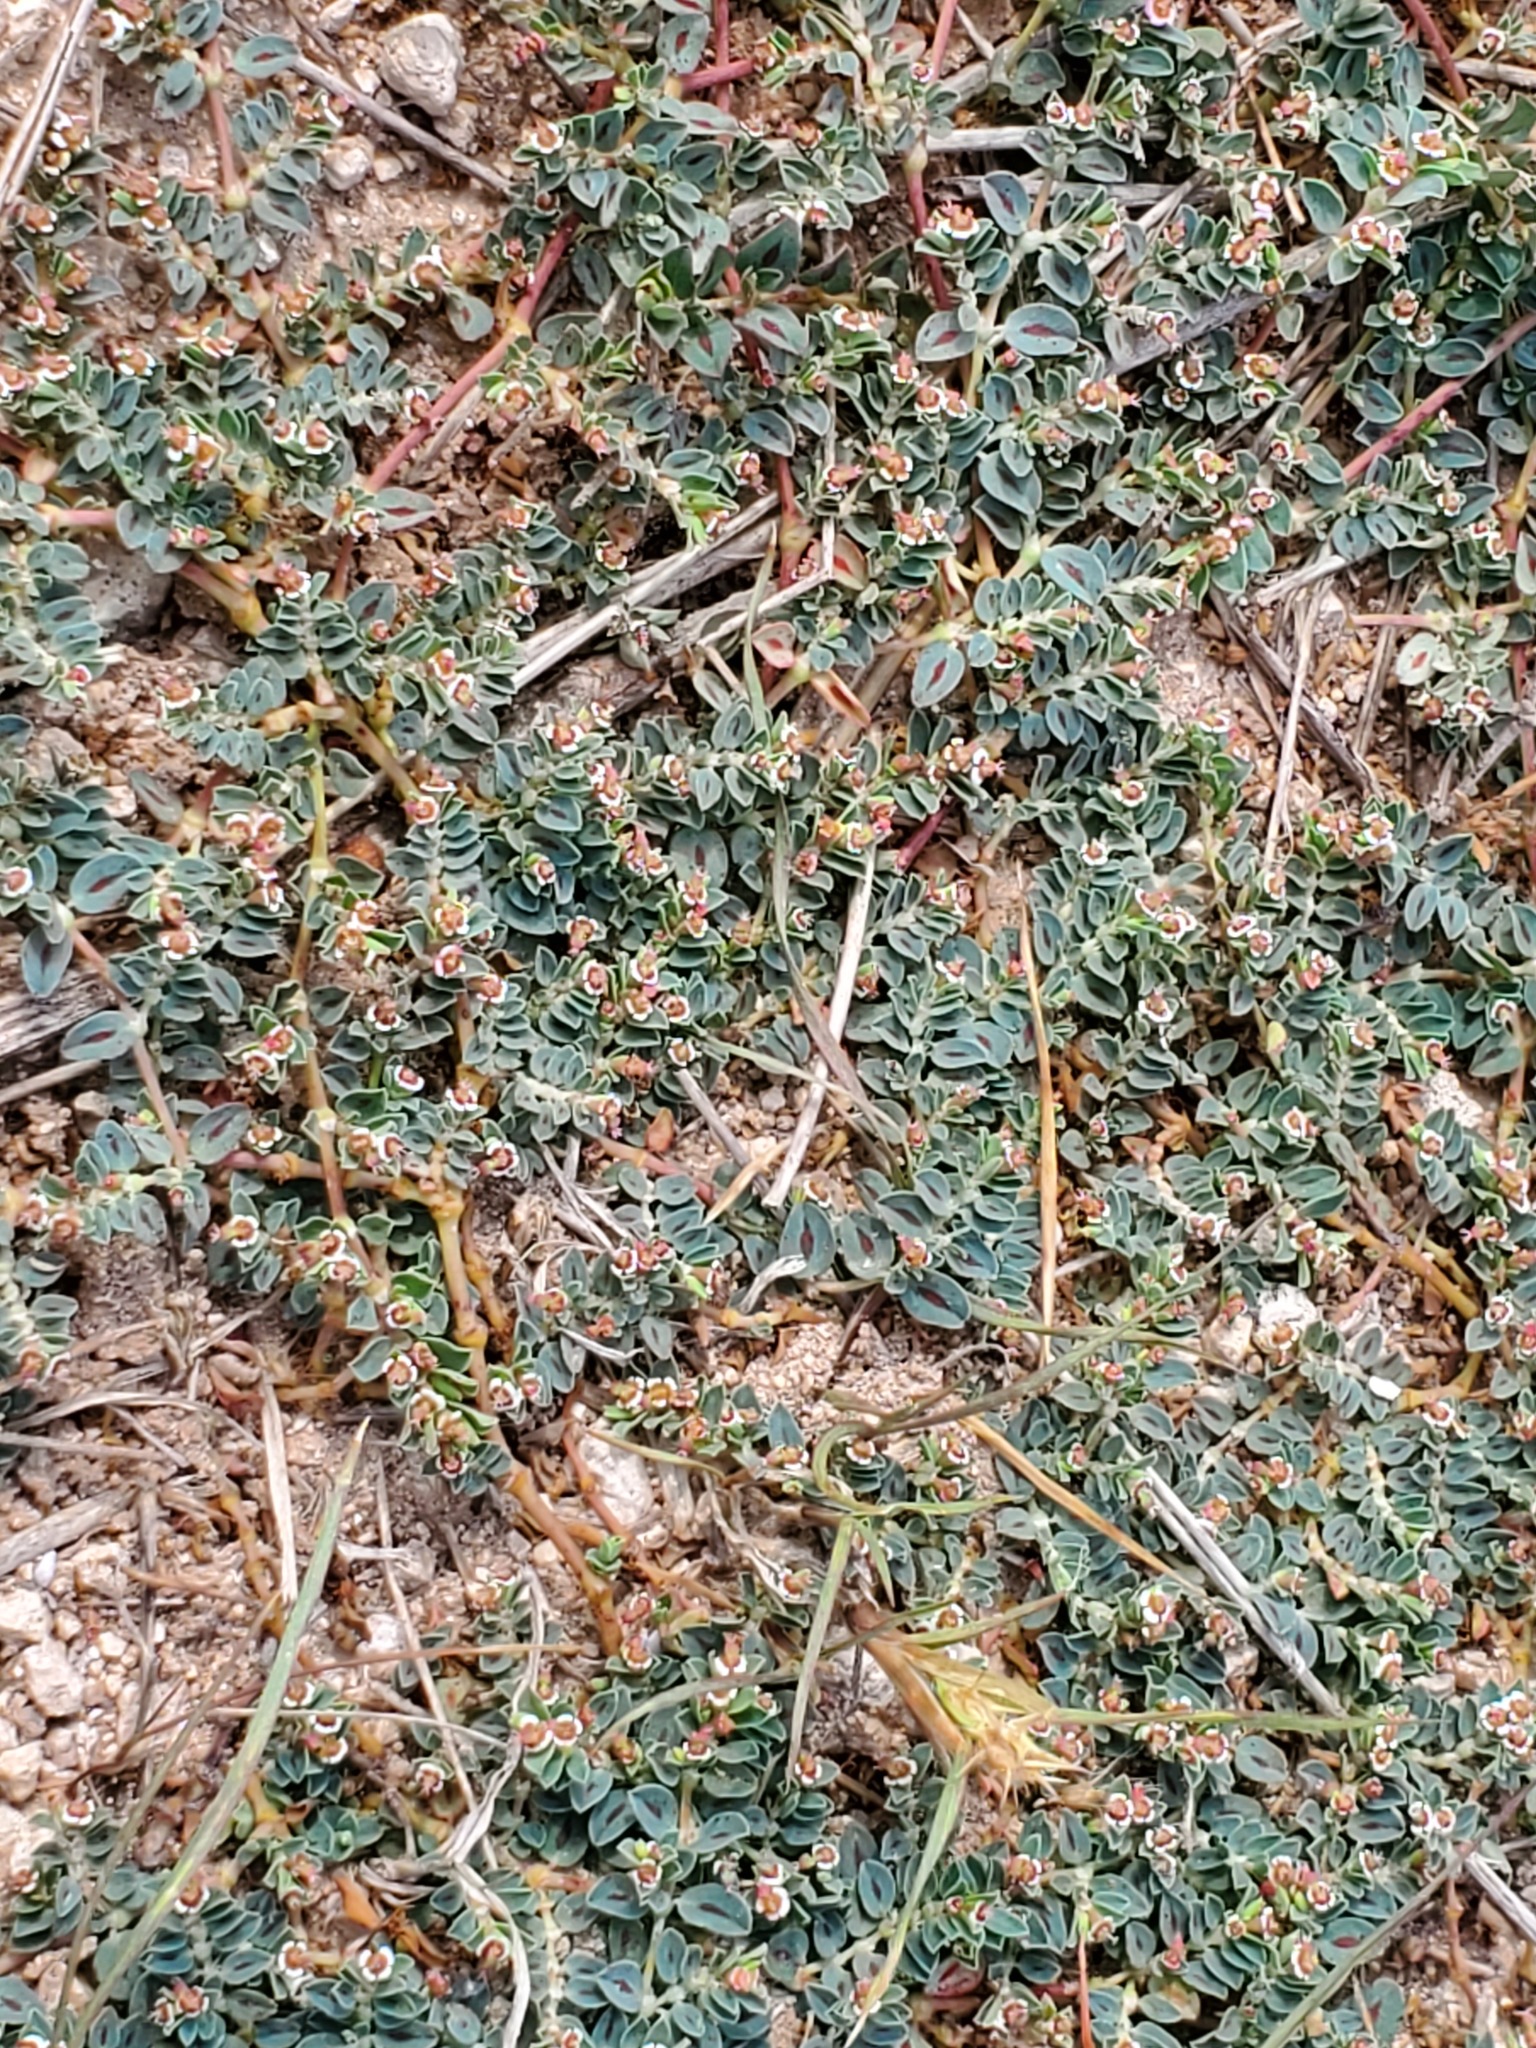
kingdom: Plantae
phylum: Tracheophyta
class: Magnoliopsida
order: Malpighiales
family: Euphorbiaceae
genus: Euphorbia
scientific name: Euphorbia albomarginata
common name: Whitemargin sandmat
